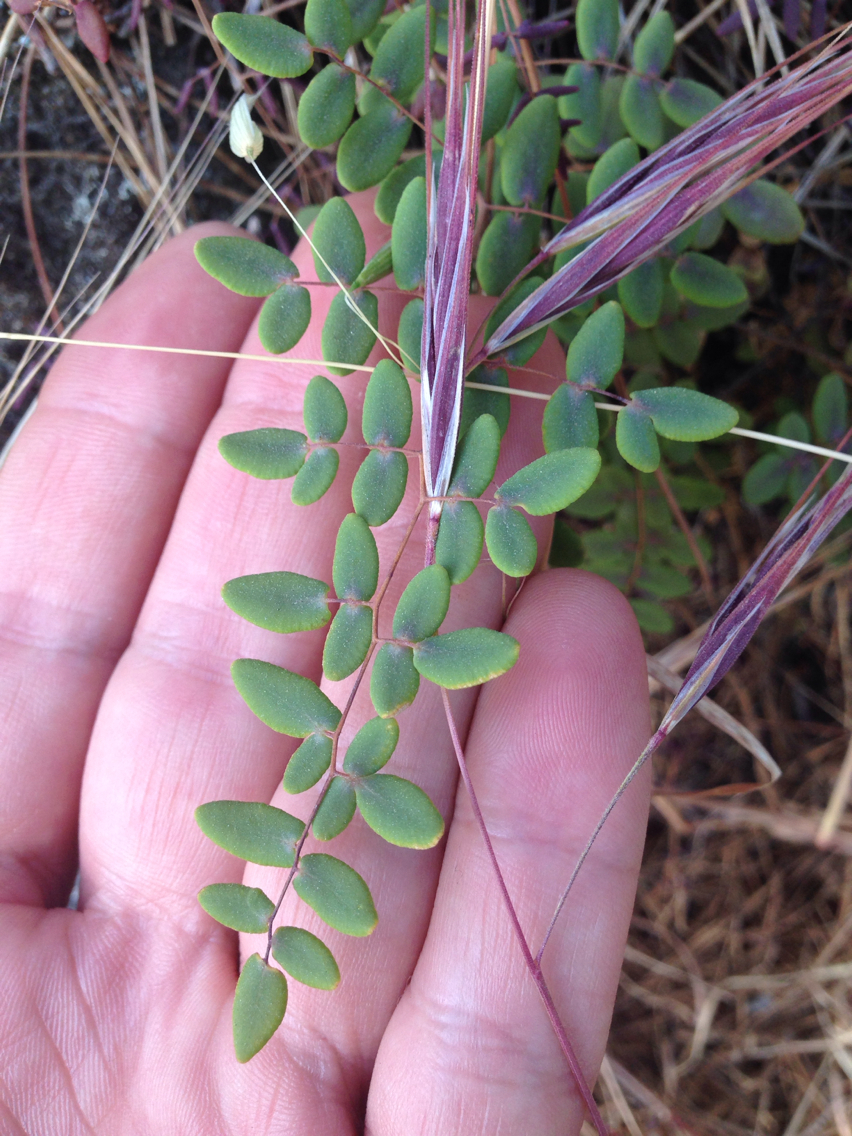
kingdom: Plantae
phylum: Tracheophyta
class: Polypodiopsida
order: Polypodiales
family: Pteridaceae
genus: Pellaea
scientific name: Pellaea andromedifolia
